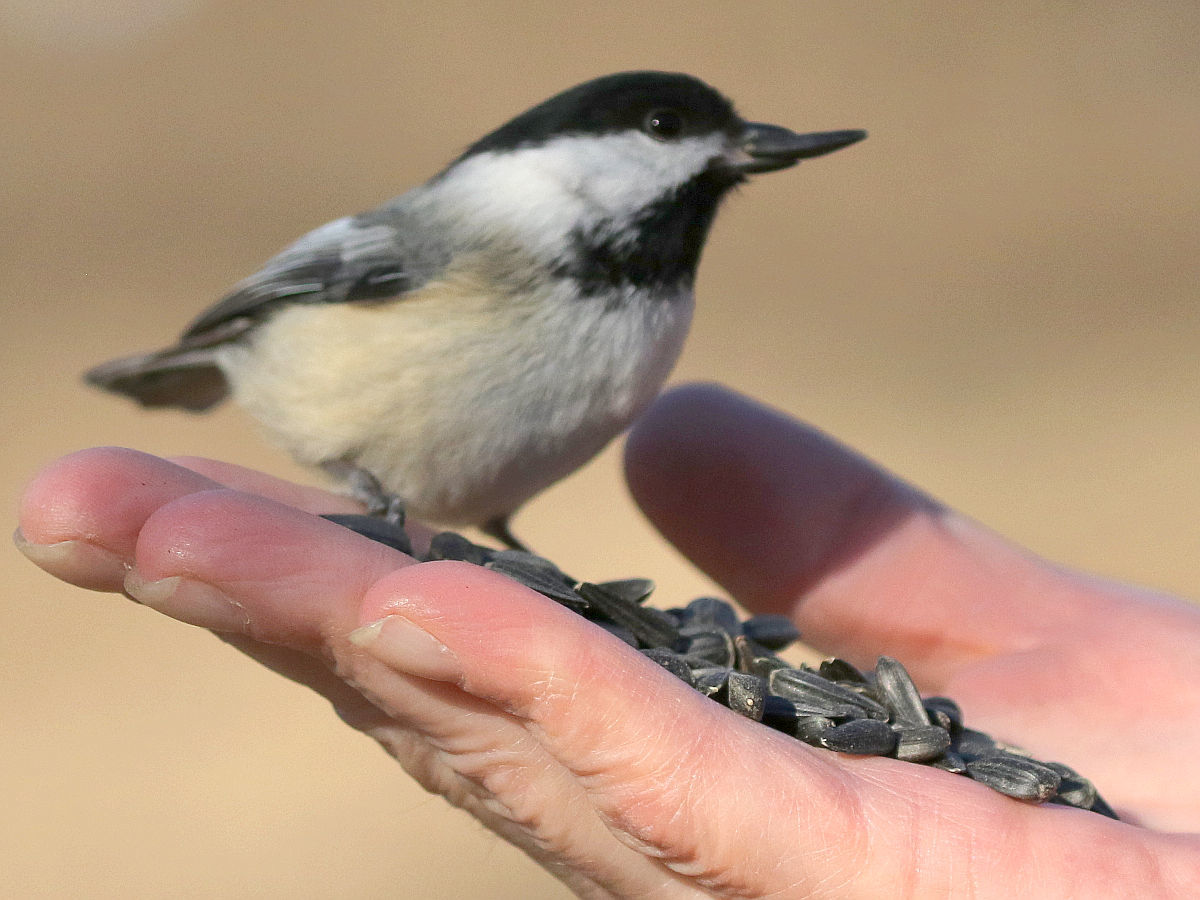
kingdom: Animalia
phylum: Chordata
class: Aves
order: Passeriformes
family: Paridae
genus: Poecile
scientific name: Poecile atricapillus
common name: Black-capped chickadee
